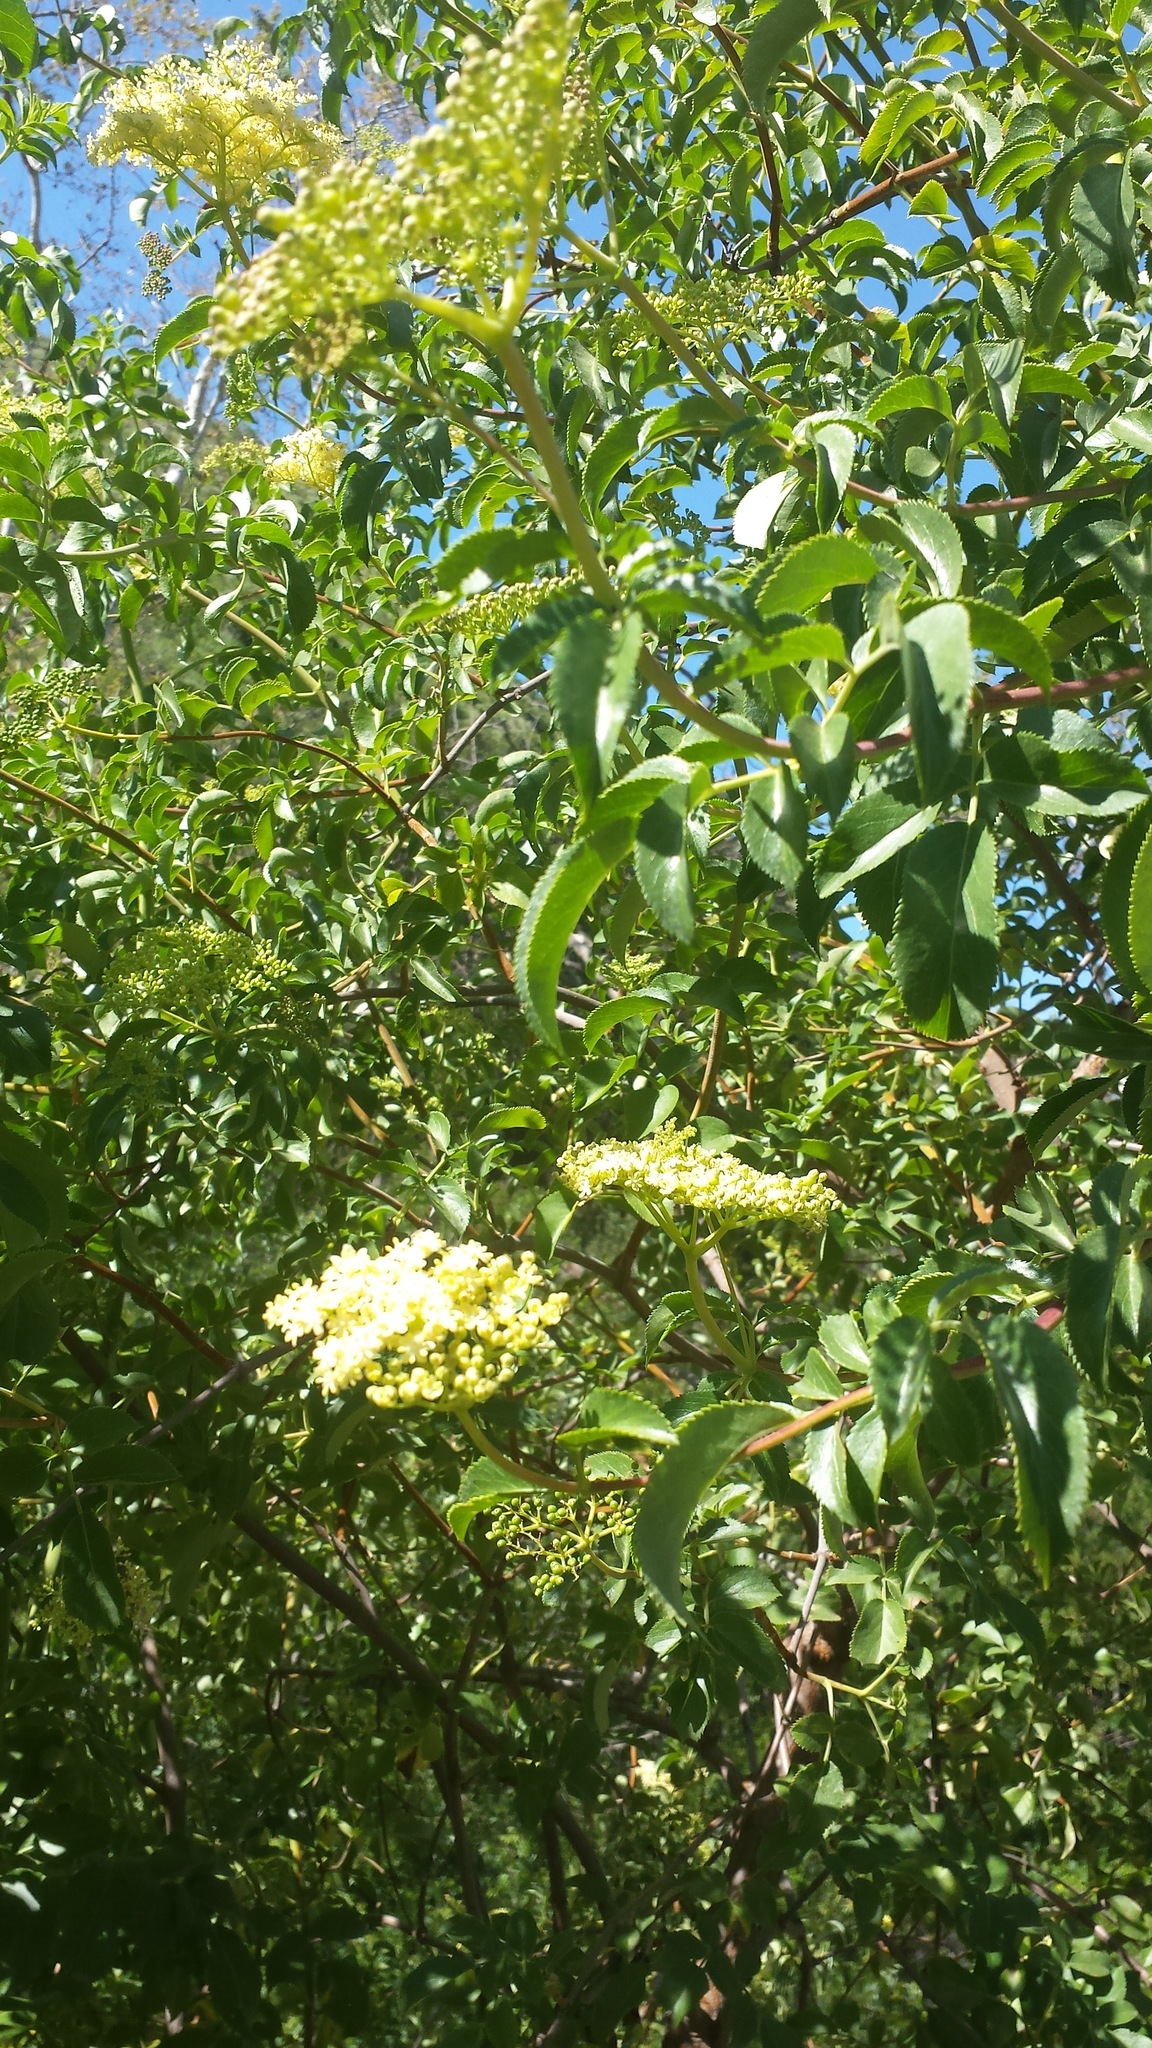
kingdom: Plantae
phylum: Tracheophyta
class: Magnoliopsida
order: Dipsacales
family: Viburnaceae
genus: Sambucus
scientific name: Sambucus cerulea
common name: Blue elder
